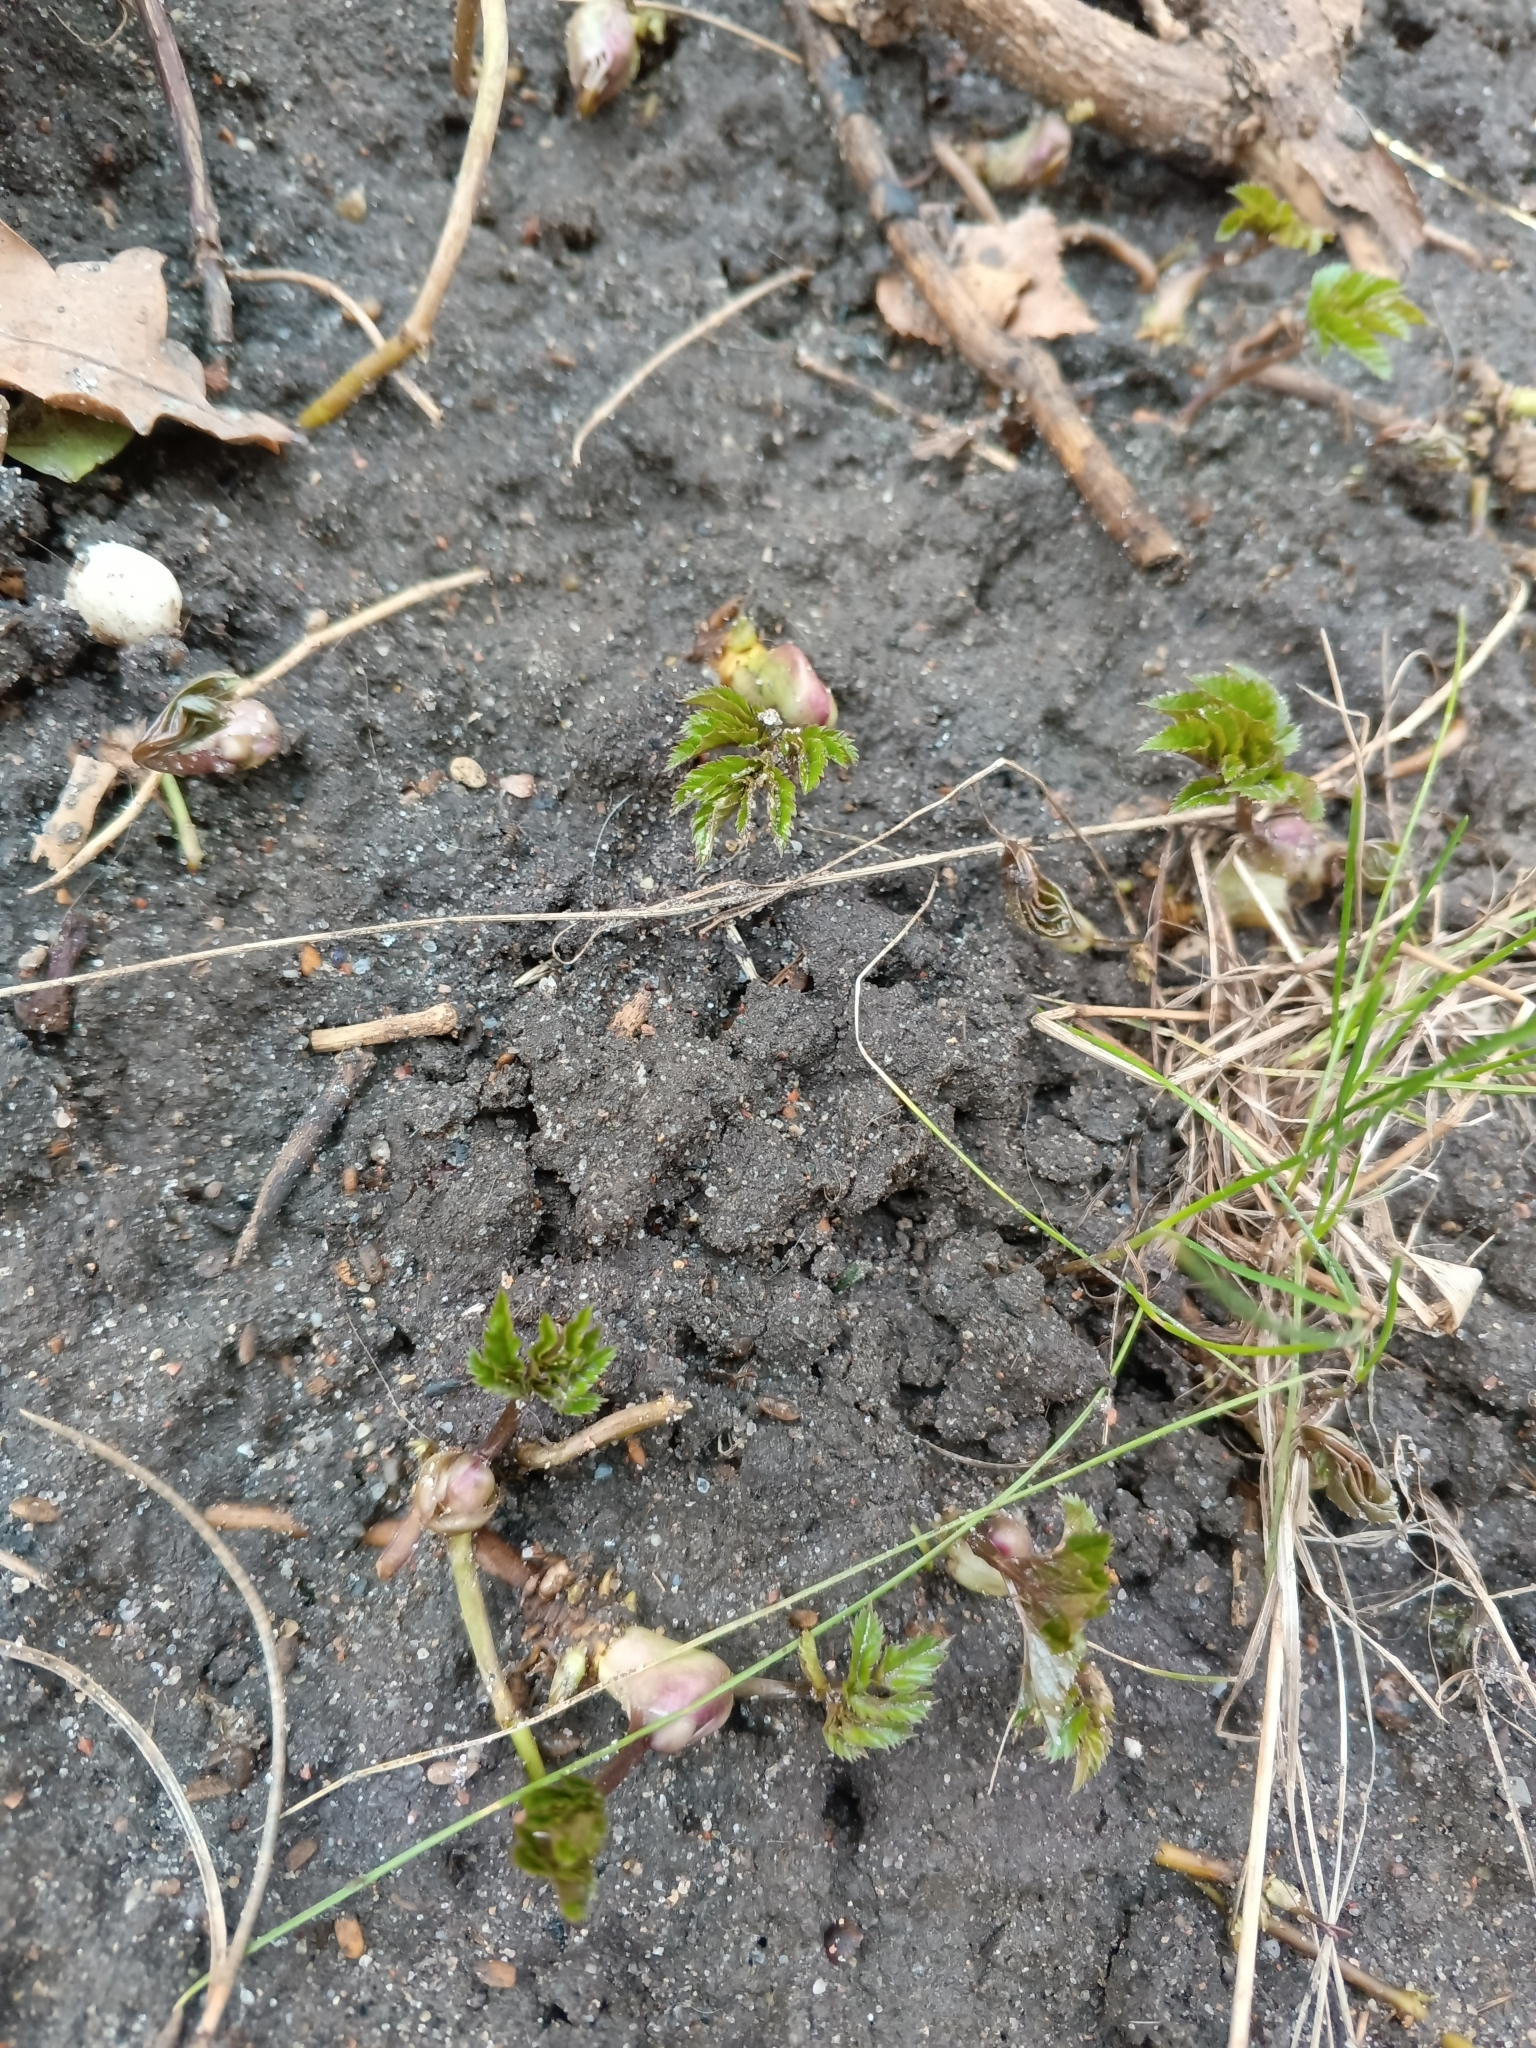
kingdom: Plantae
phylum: Tracheophyta
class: Magnoliopsida
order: Apiales
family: Apiaceae
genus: Aegopodium
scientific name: Aegopodium podagraria
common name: Ground-elder
